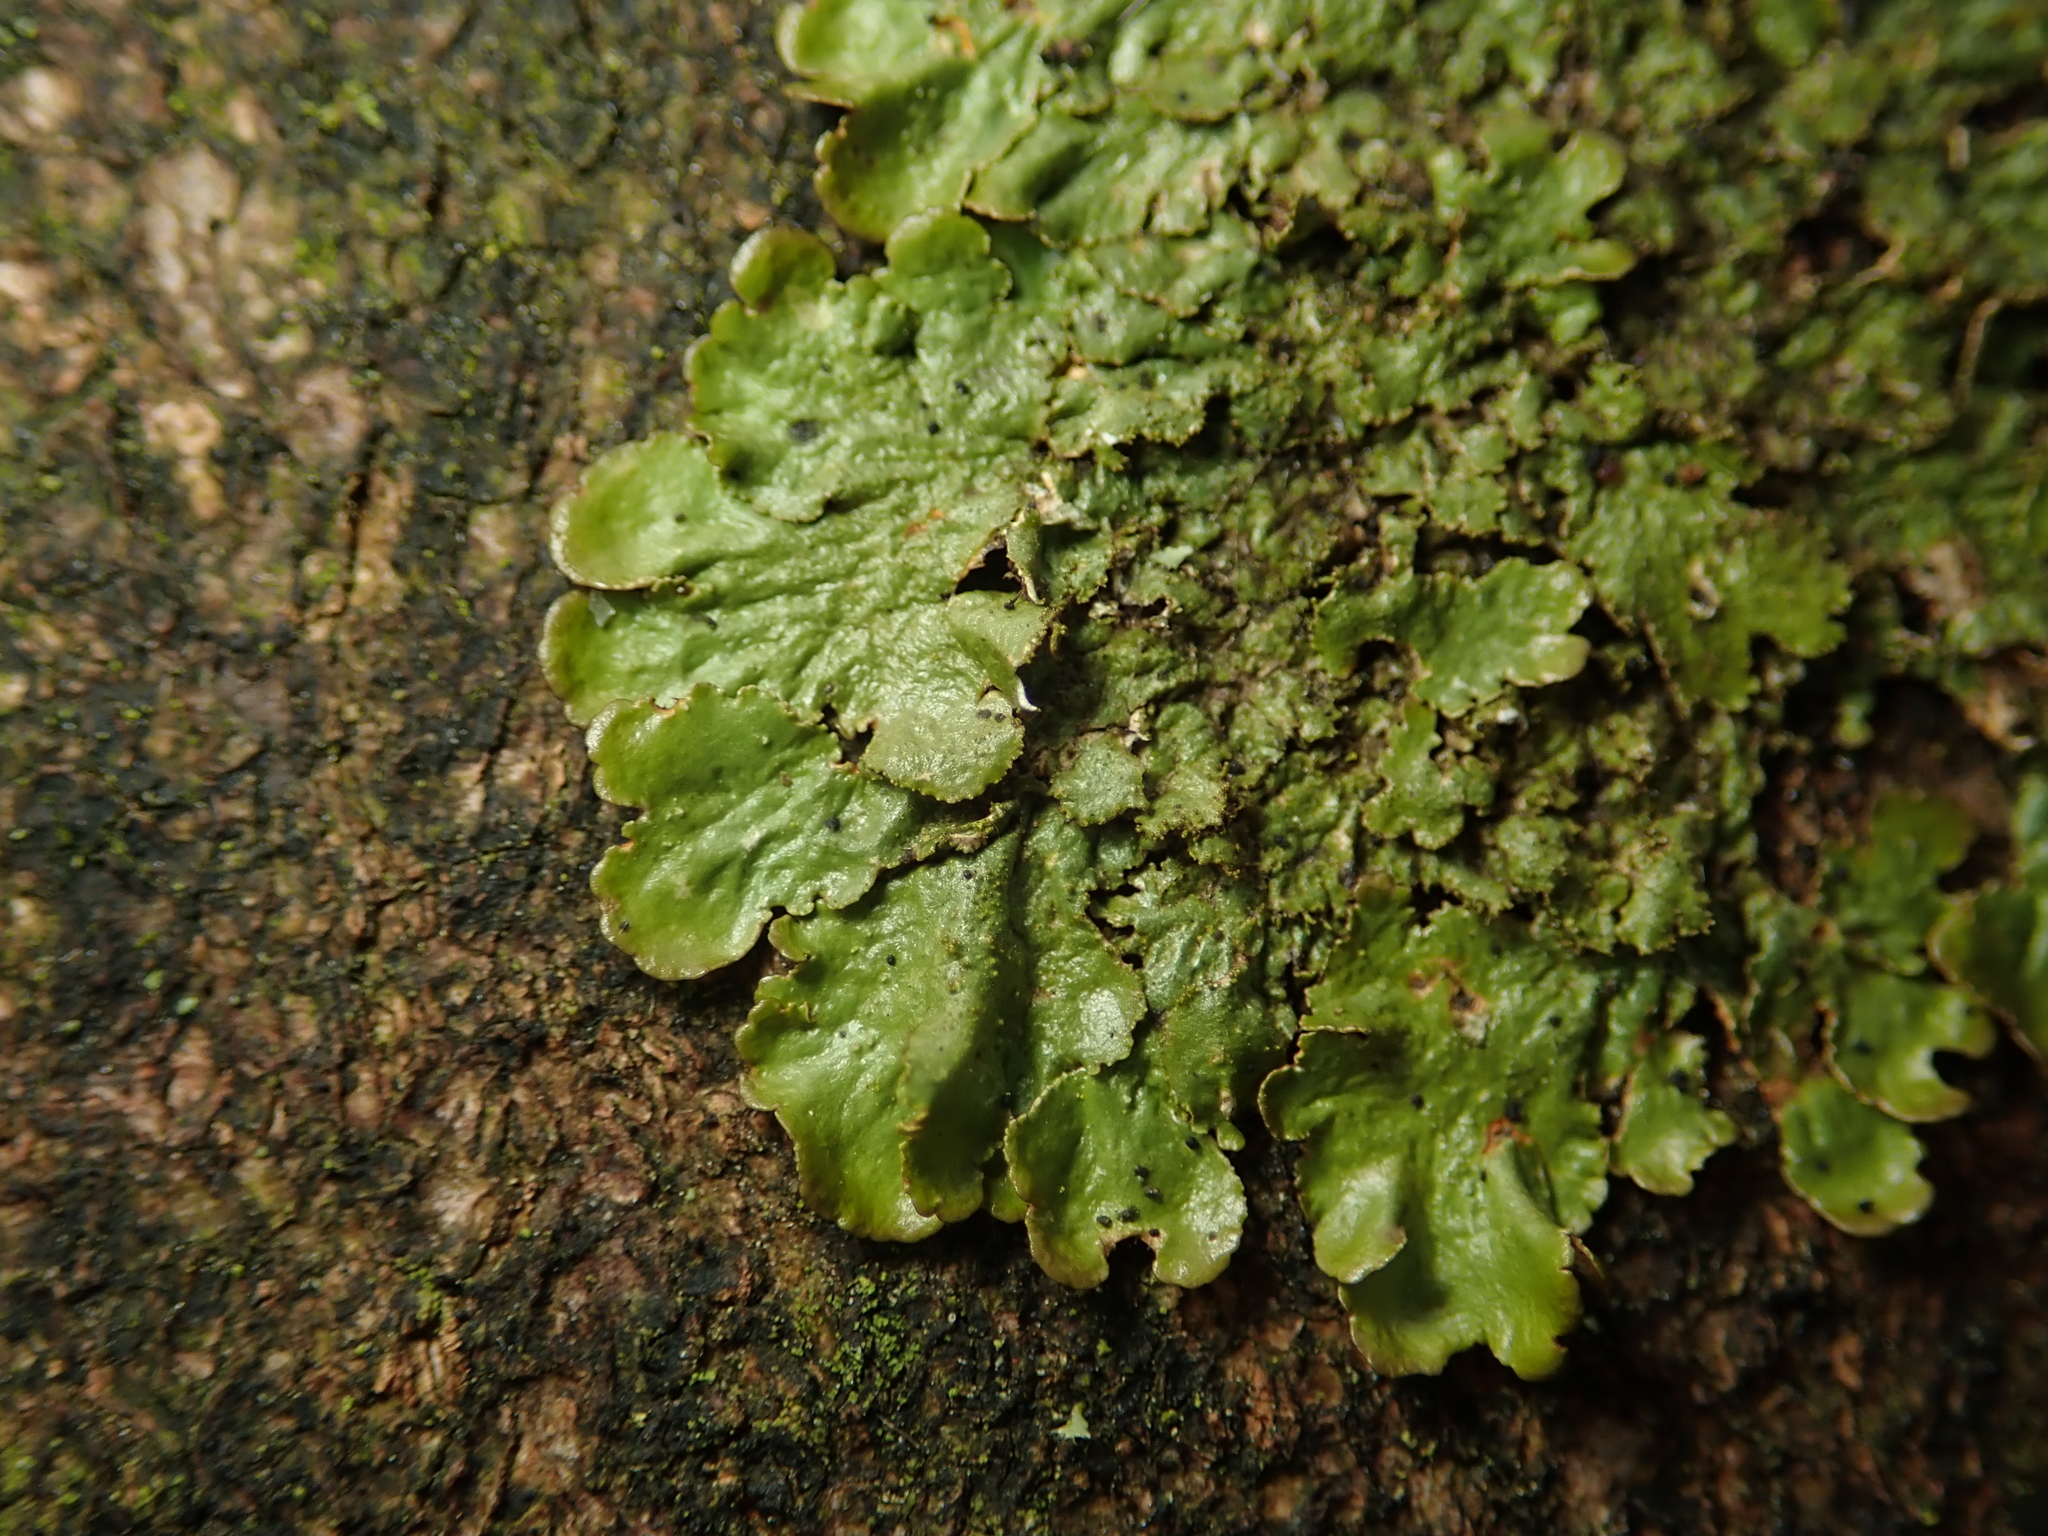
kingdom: Fungi
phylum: Ascomycota
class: Lecanoromycetes
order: Lecanorales
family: Parmeliaceae
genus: Melanelixia
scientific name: Melanelixia glabratula
